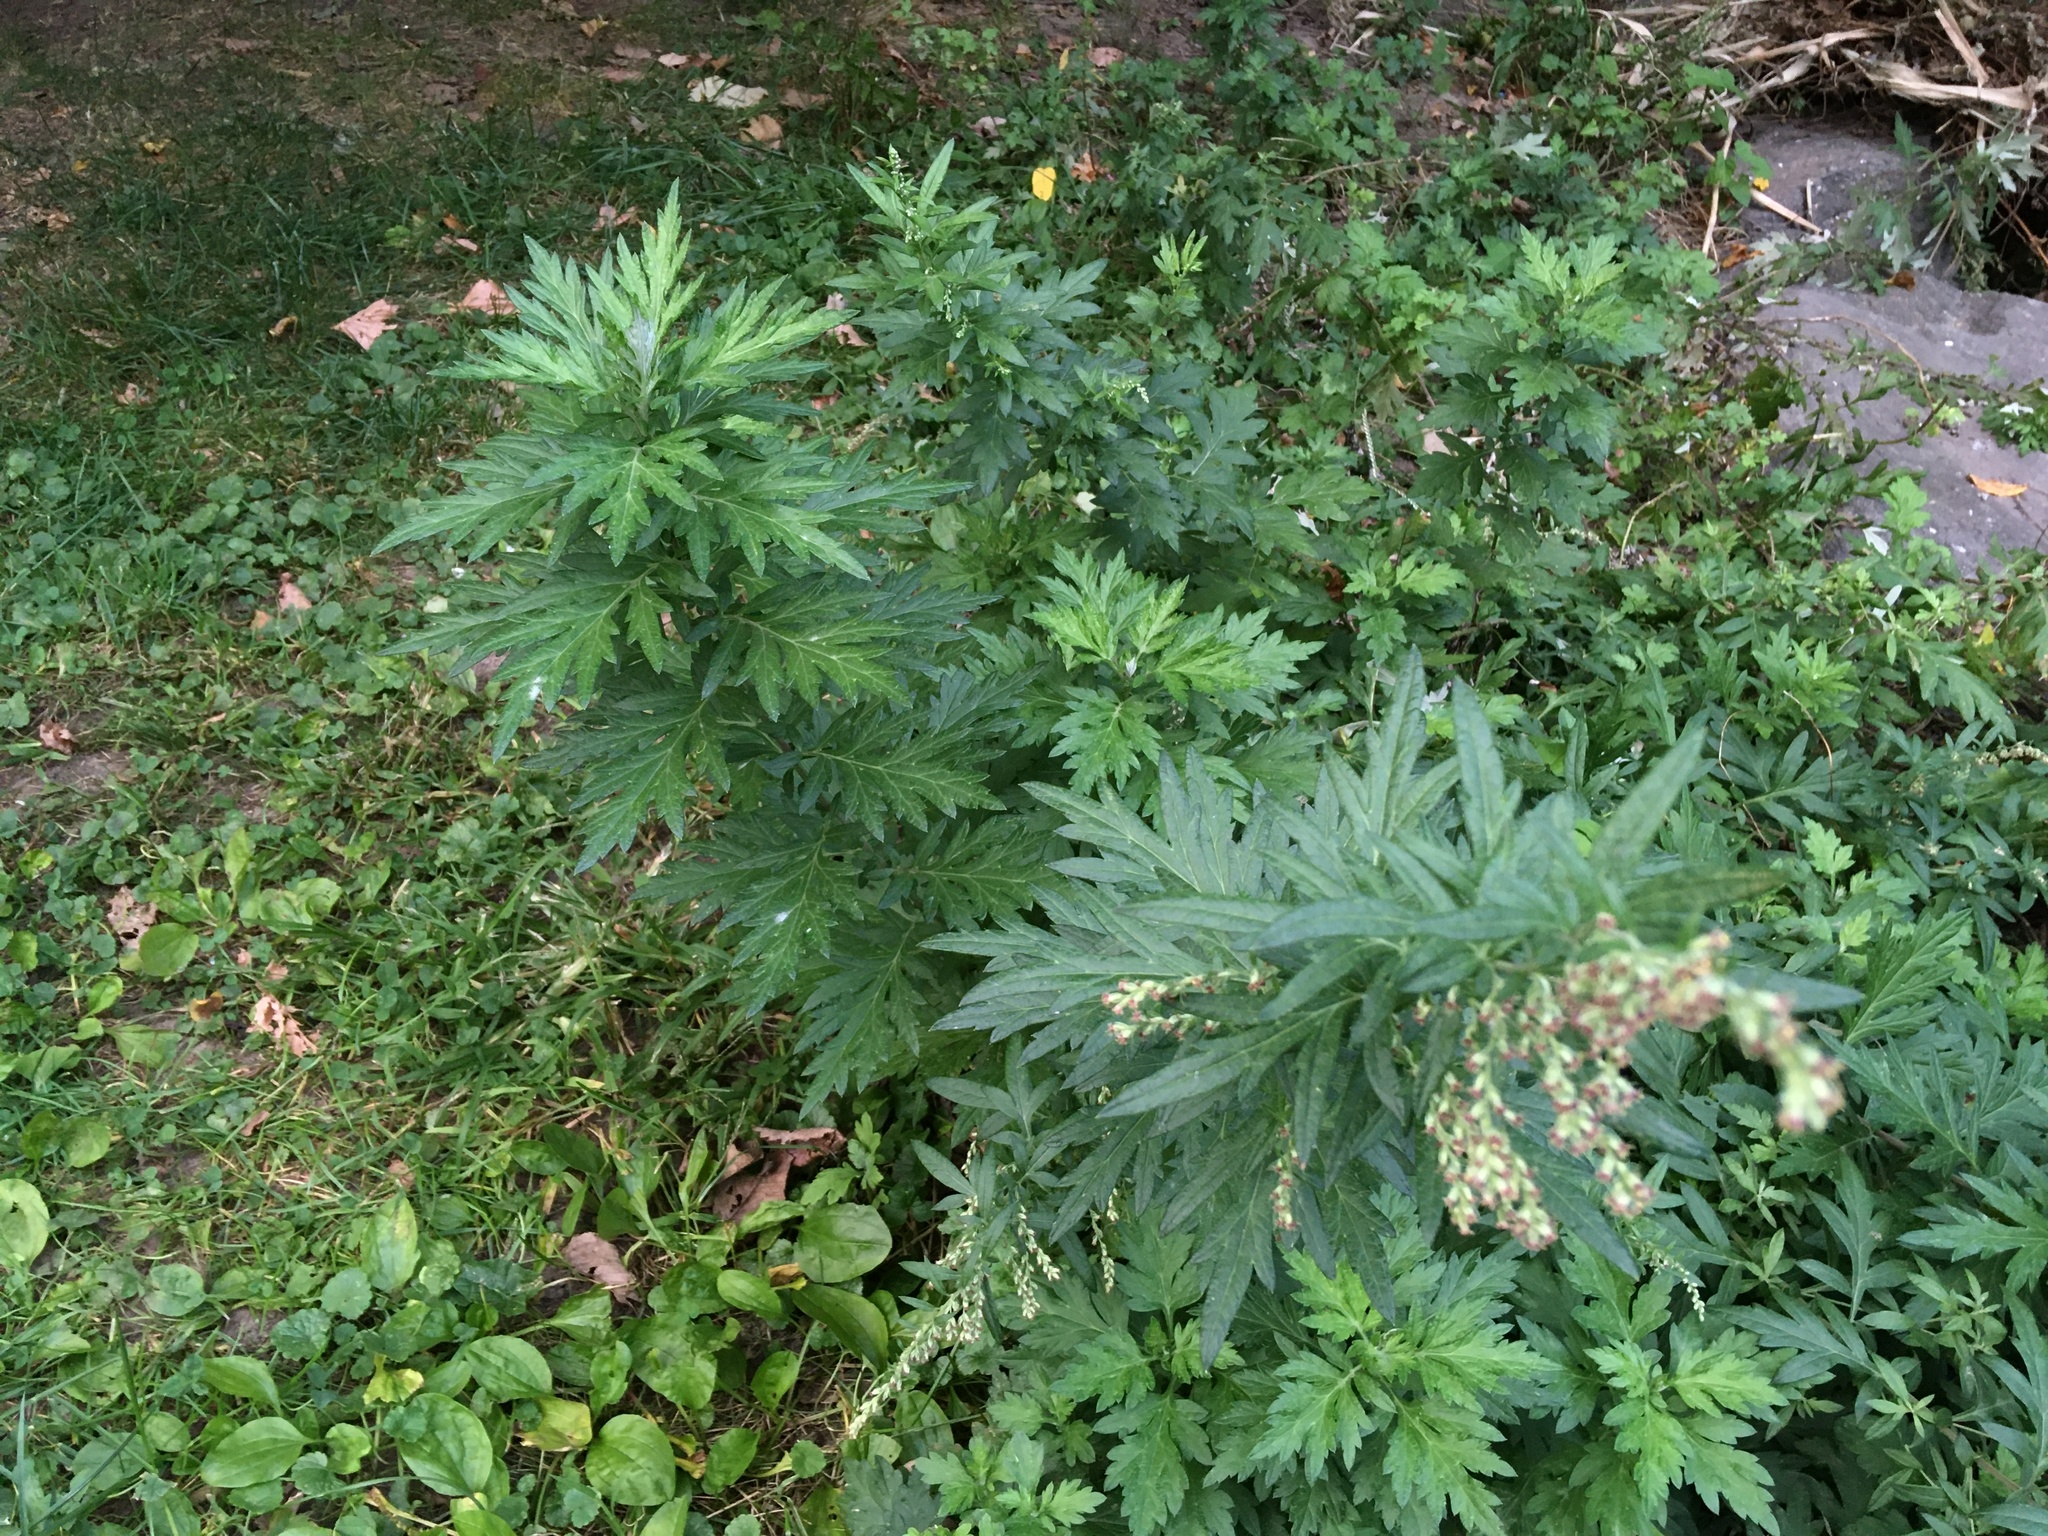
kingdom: Plantae
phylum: Tracheophyta
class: Magnoliopsida
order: Asterales
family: Asteraceae
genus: Artemisia
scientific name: Artemisia vulgaris
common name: Mugwort
